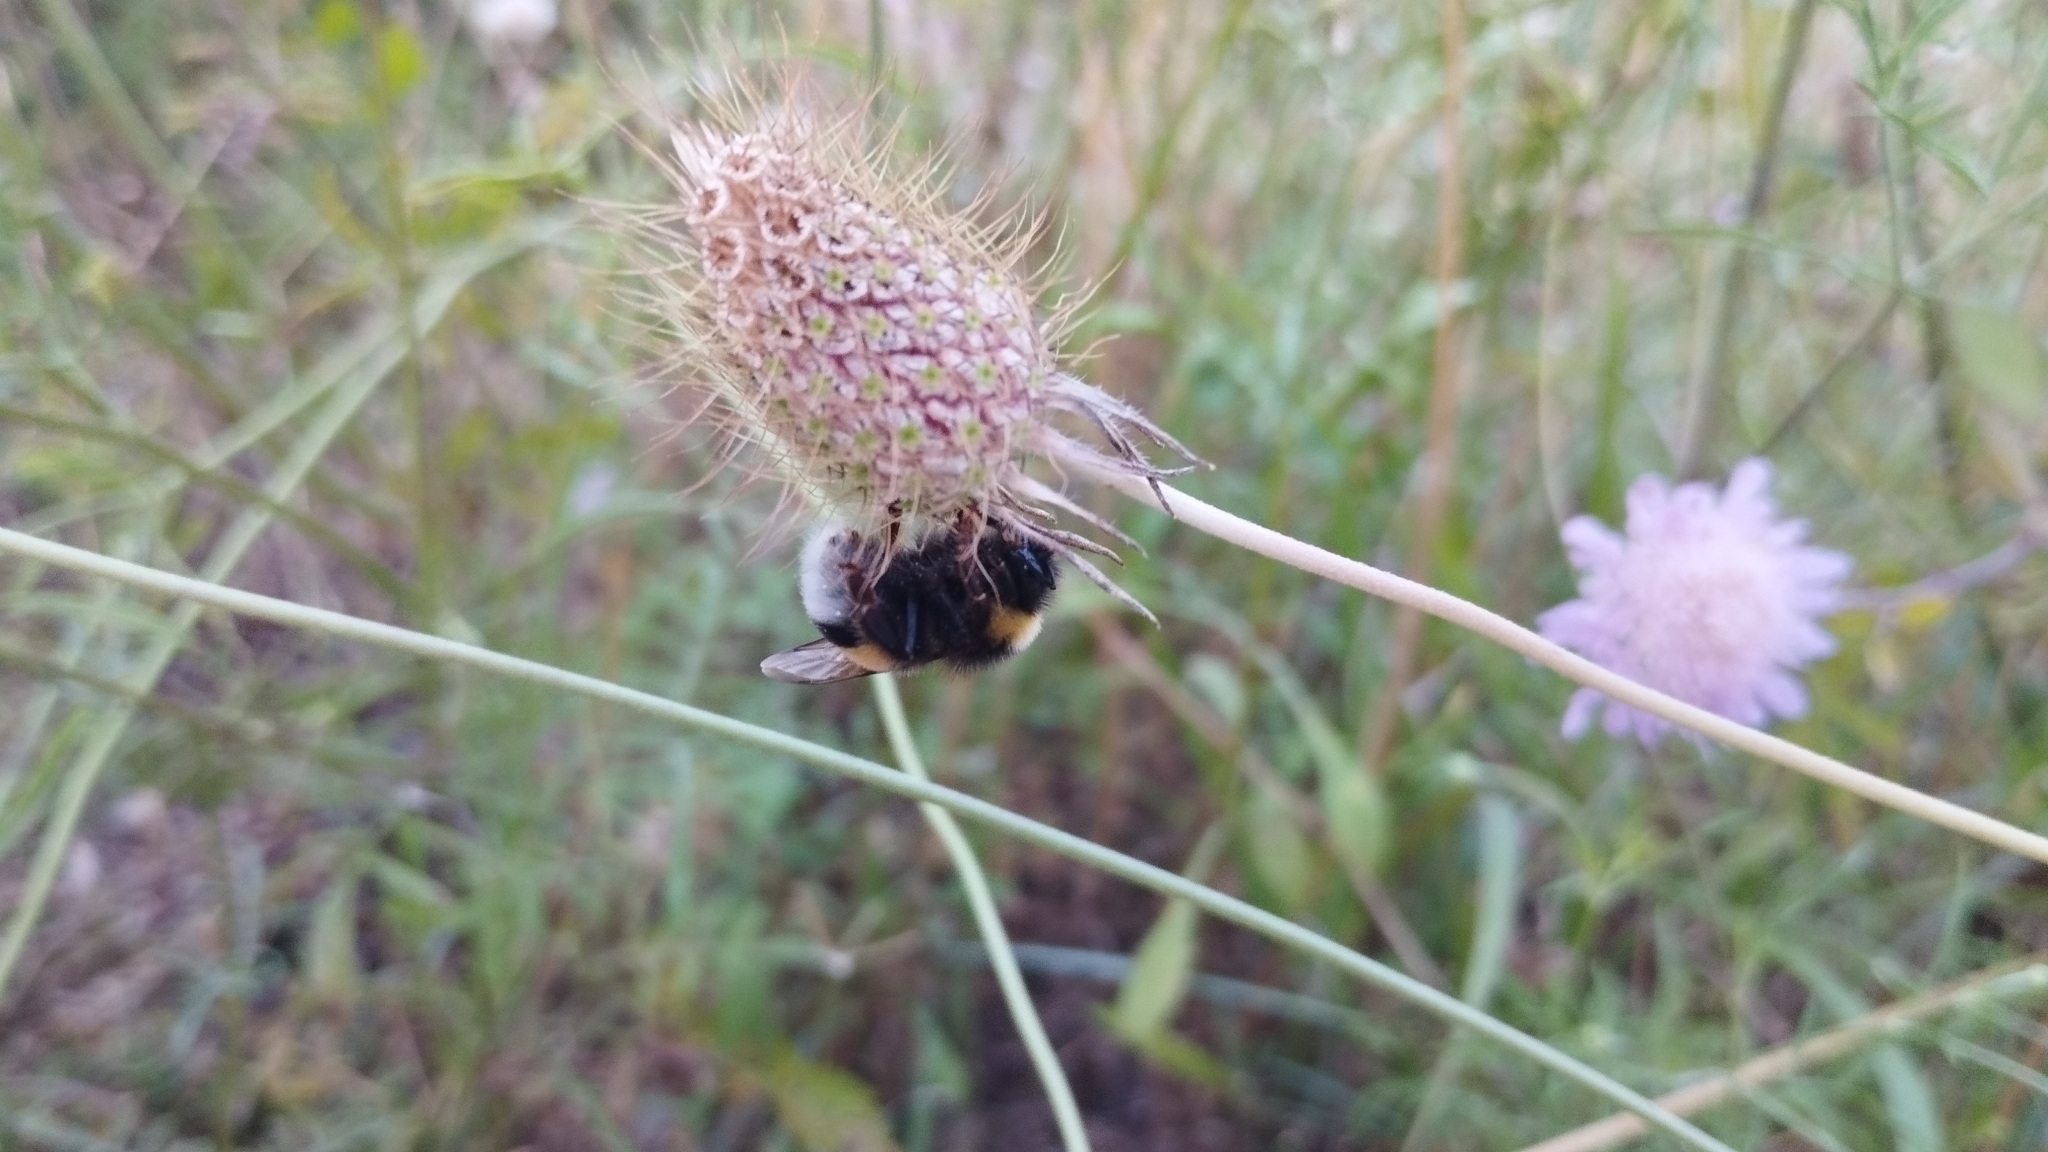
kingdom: Animalia
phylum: Arthropoda
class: Insecta
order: Hymenoptera
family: Apidae
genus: Bombus
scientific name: Bombus terrestris
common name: Buff-tailed bumblebee
